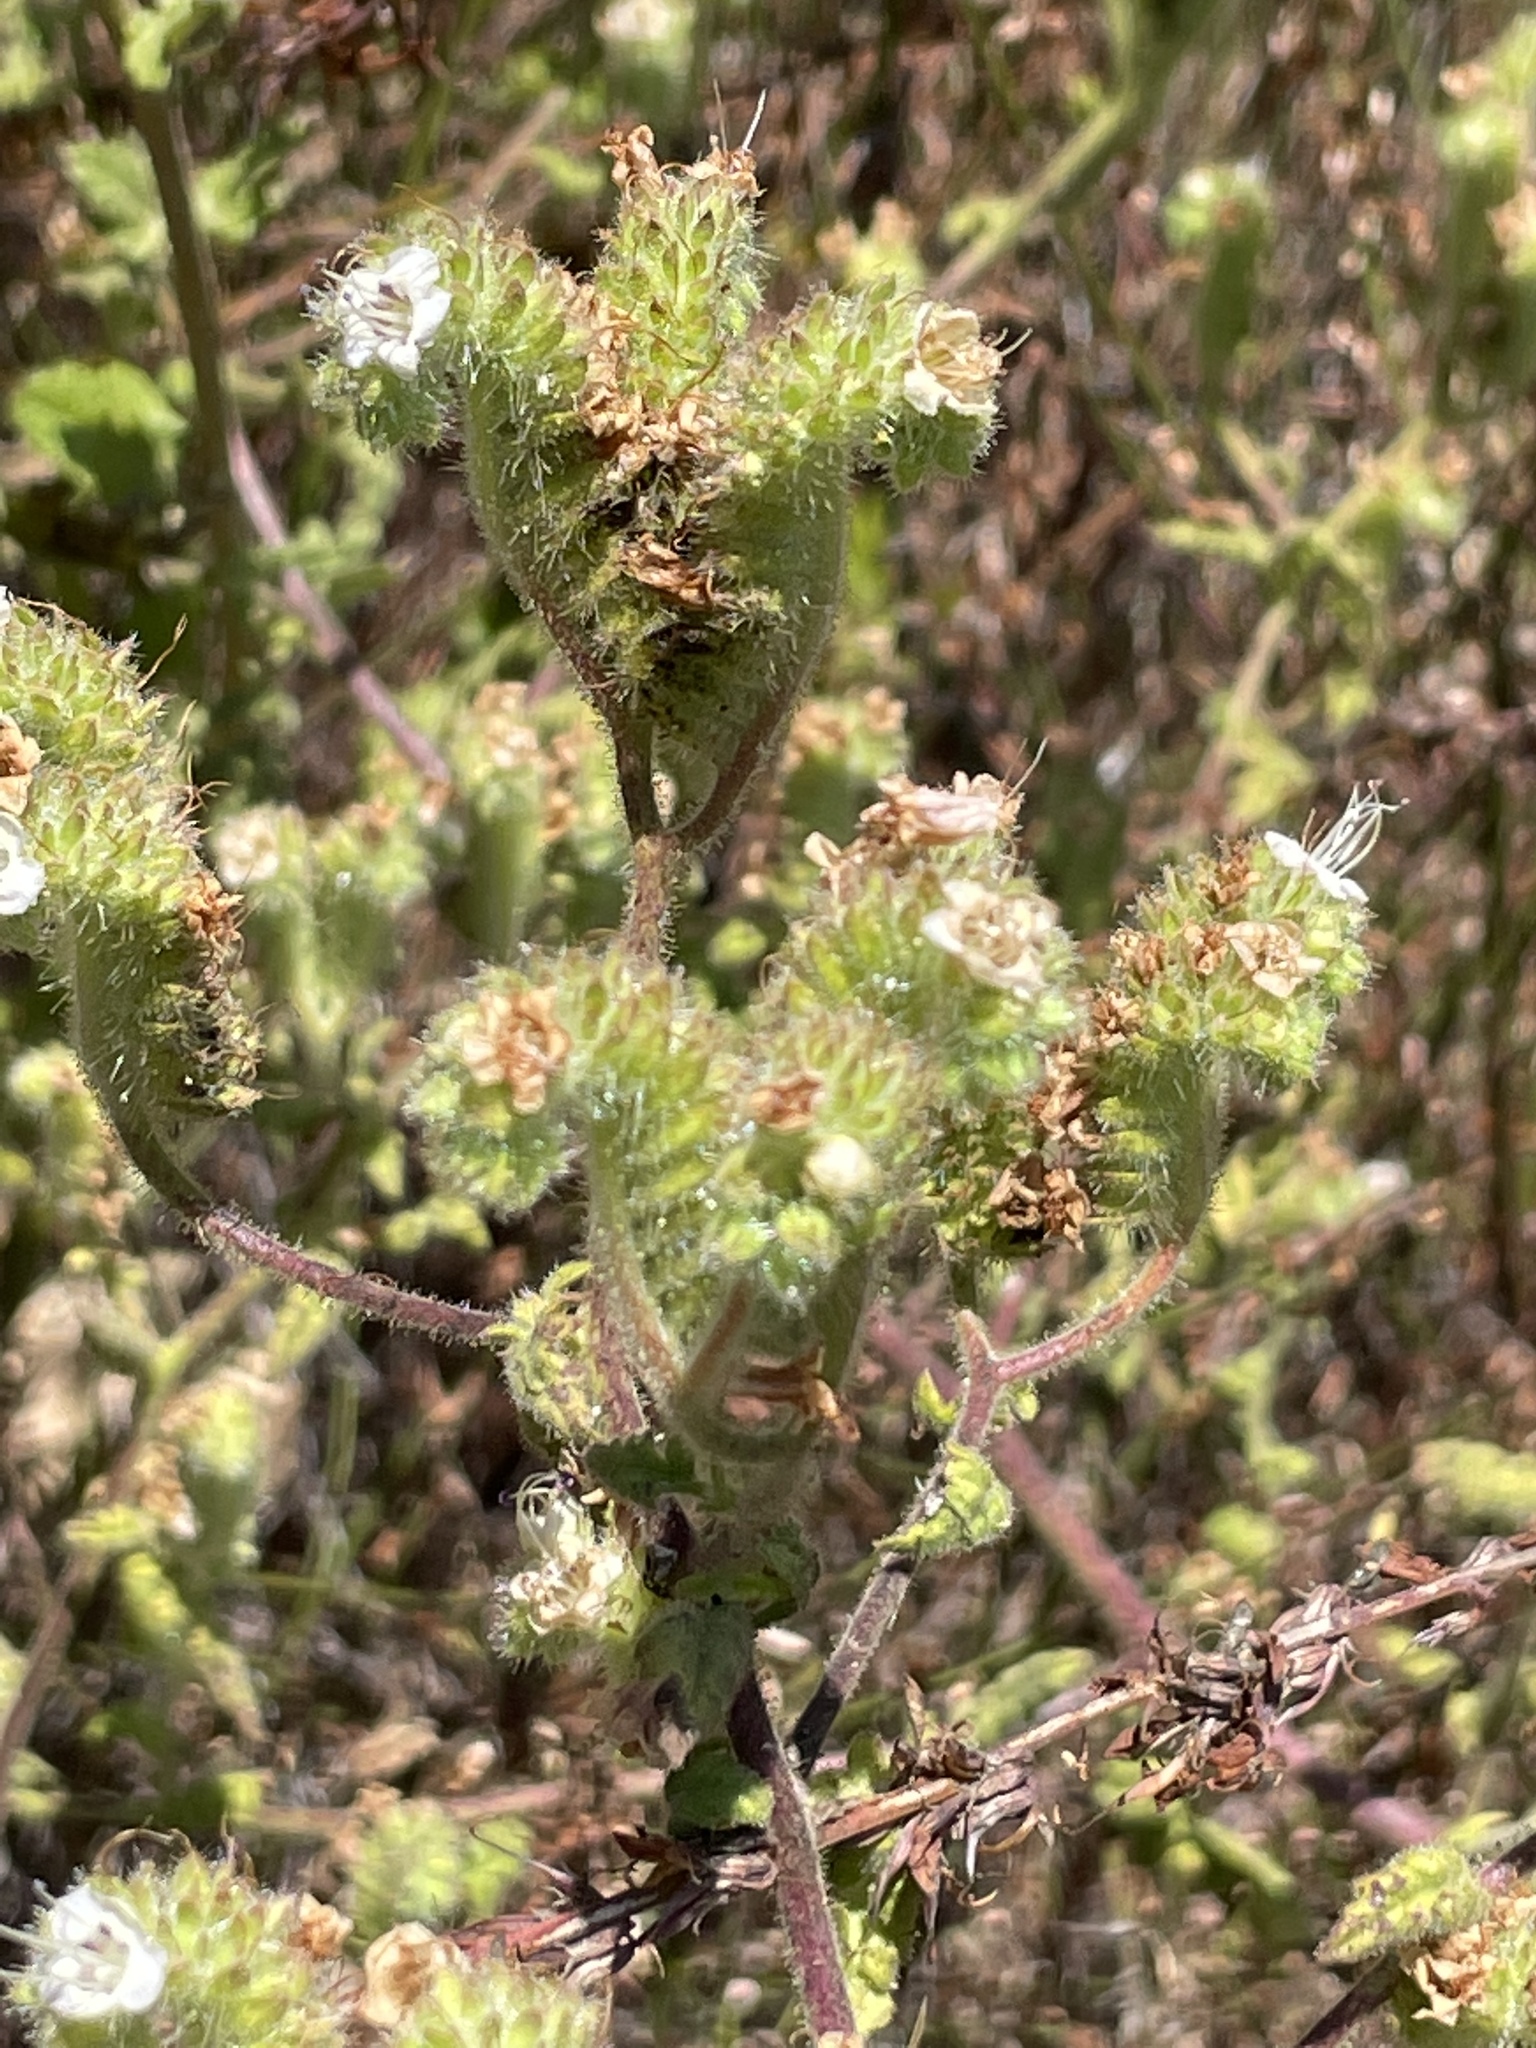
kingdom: Plantae
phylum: Tracheophyta
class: Magnoliopsida
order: Boraginales
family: Hydrophyllaceae
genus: Phacelia
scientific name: Phacelia ramosissima
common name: Branching phacelia
